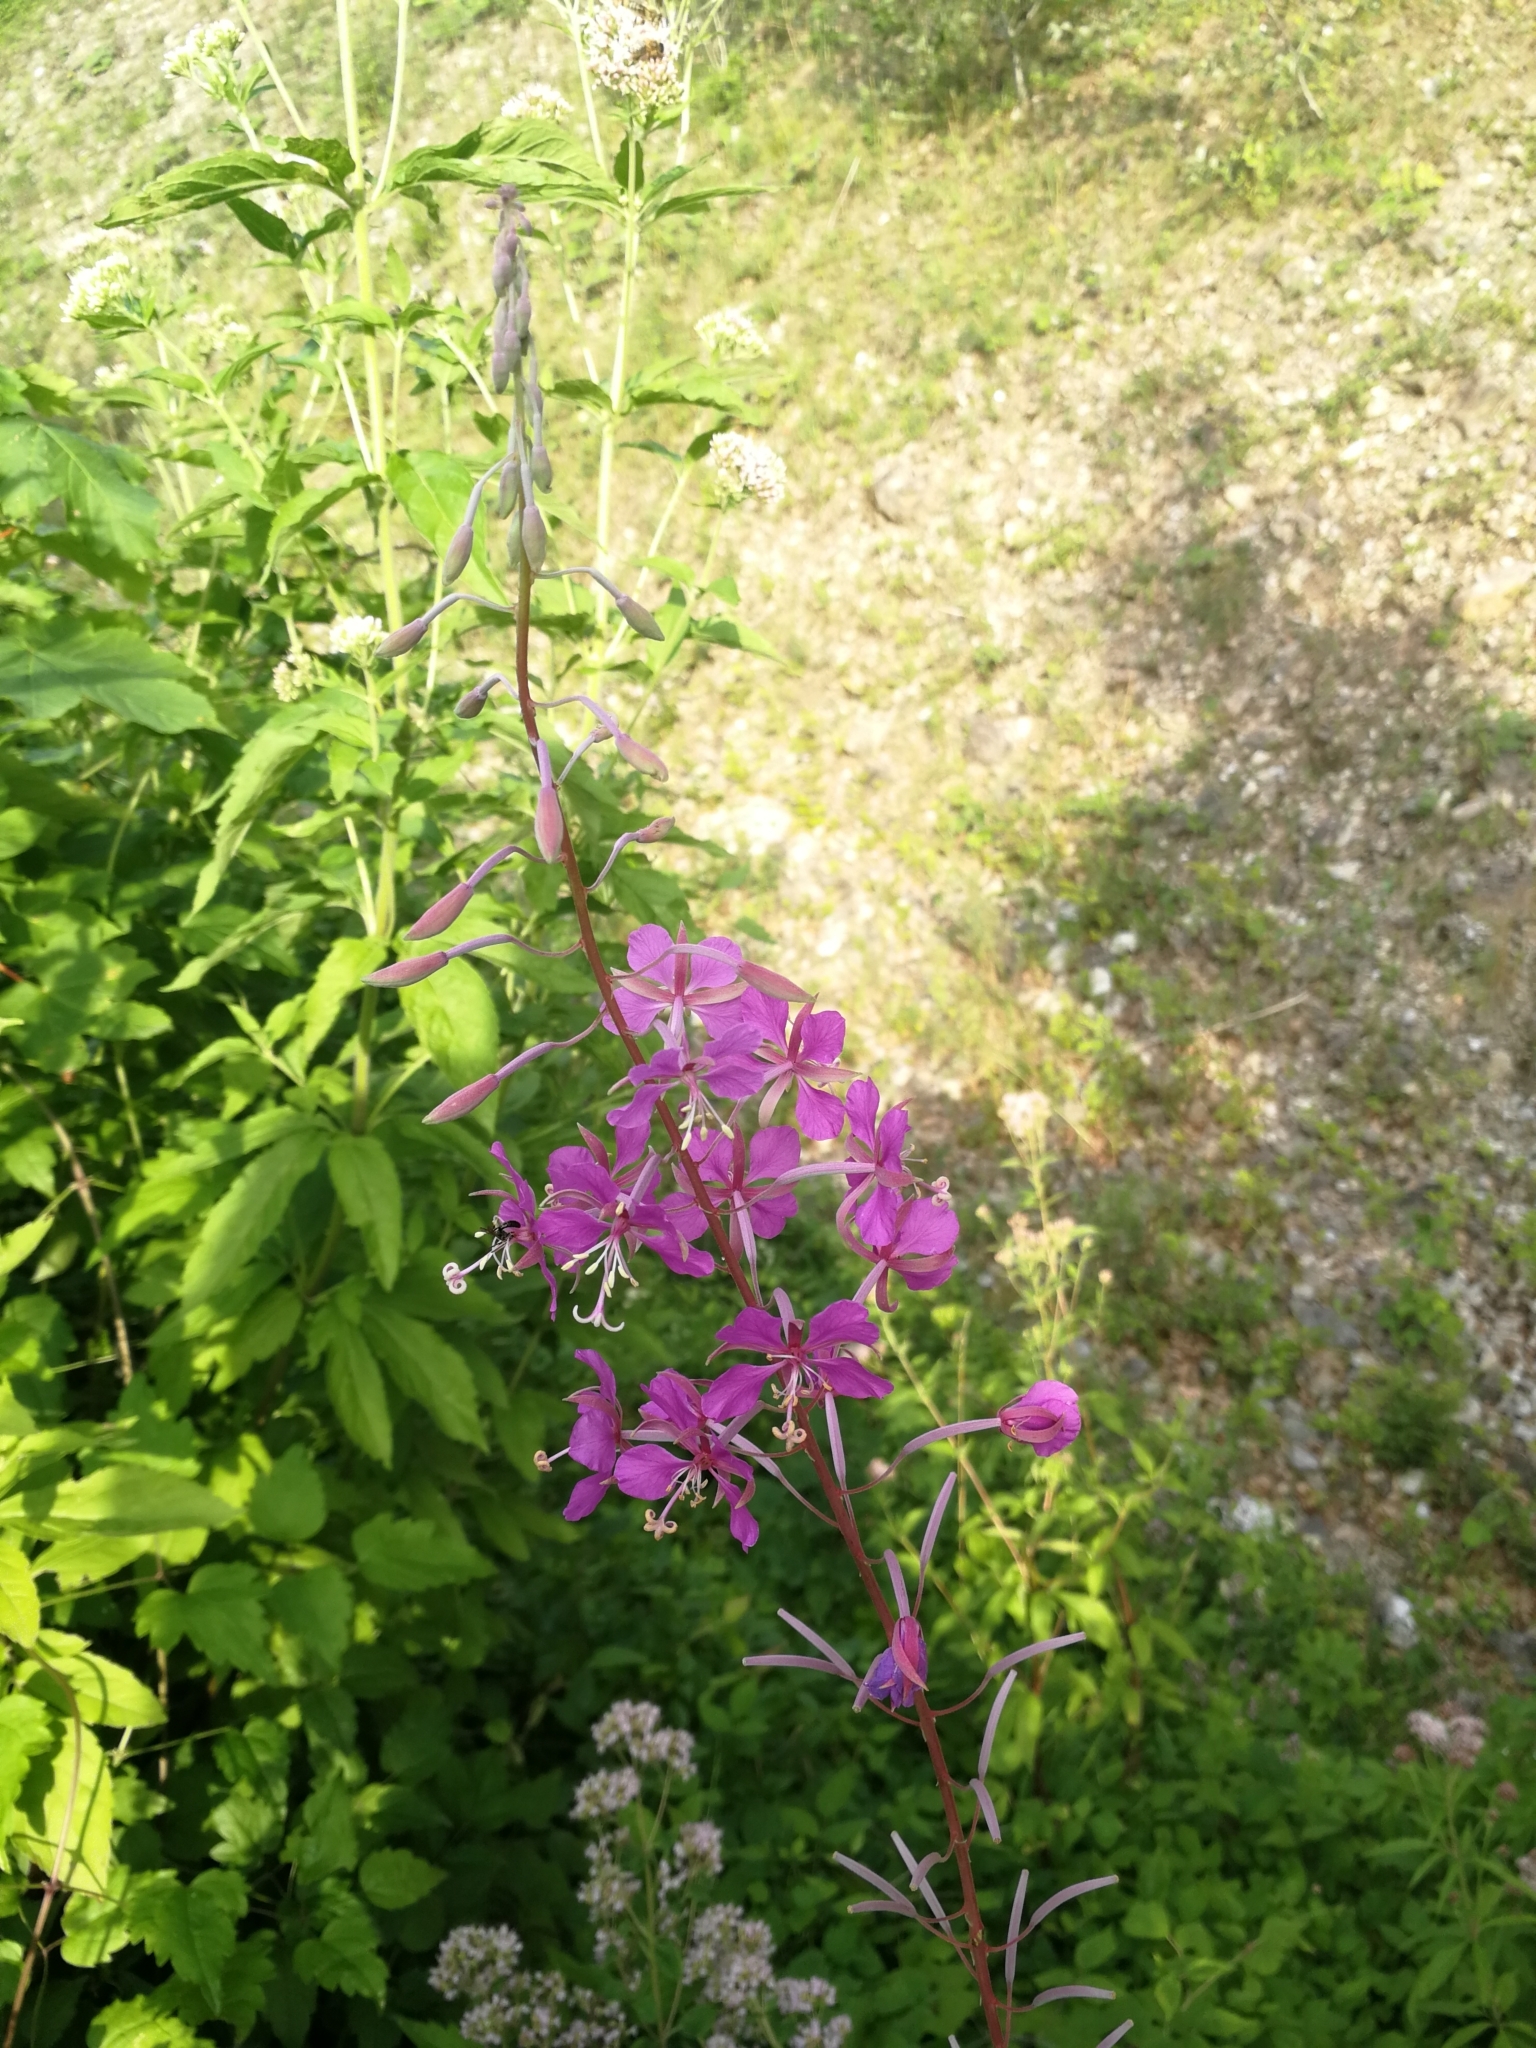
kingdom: Plantae
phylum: Tracheophyta
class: Magnoliopsida
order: Myrtales
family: Onagraceae
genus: Chamaenerion
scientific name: Chamaenerion angustifolium
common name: Fireweed
